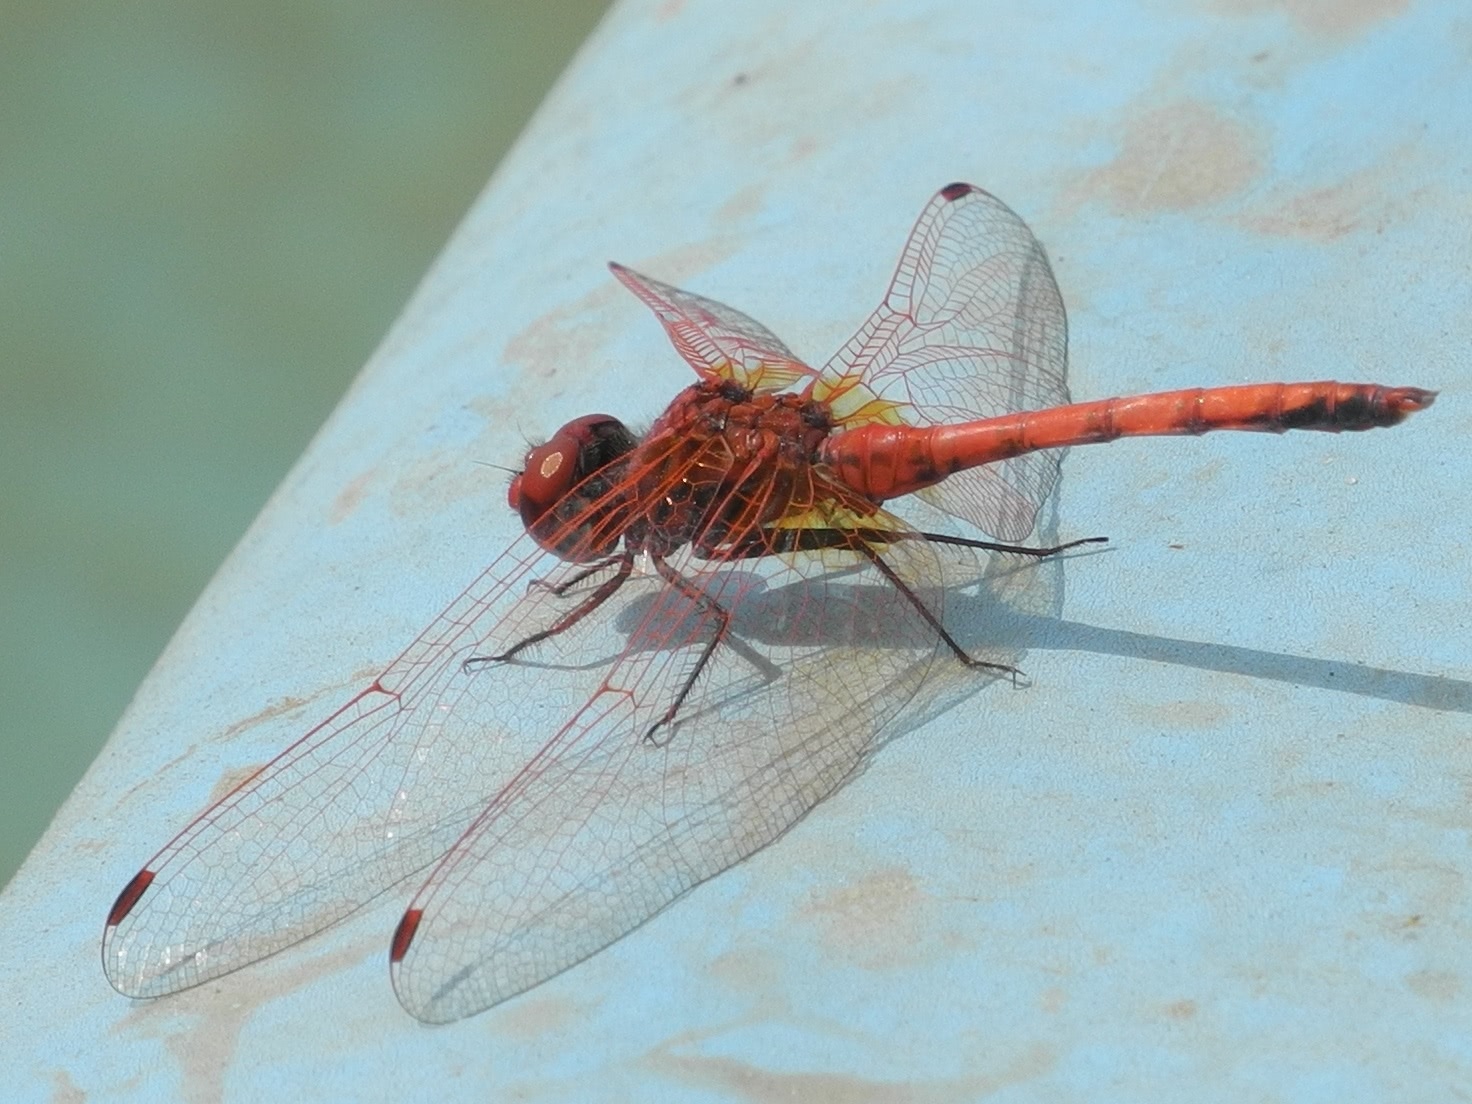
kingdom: Animalia
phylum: Arthropoda
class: Insecta
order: Odonata
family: Libellulidae
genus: Trithemis
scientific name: Trithemis arteriosa
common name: Red-veined dropwing
